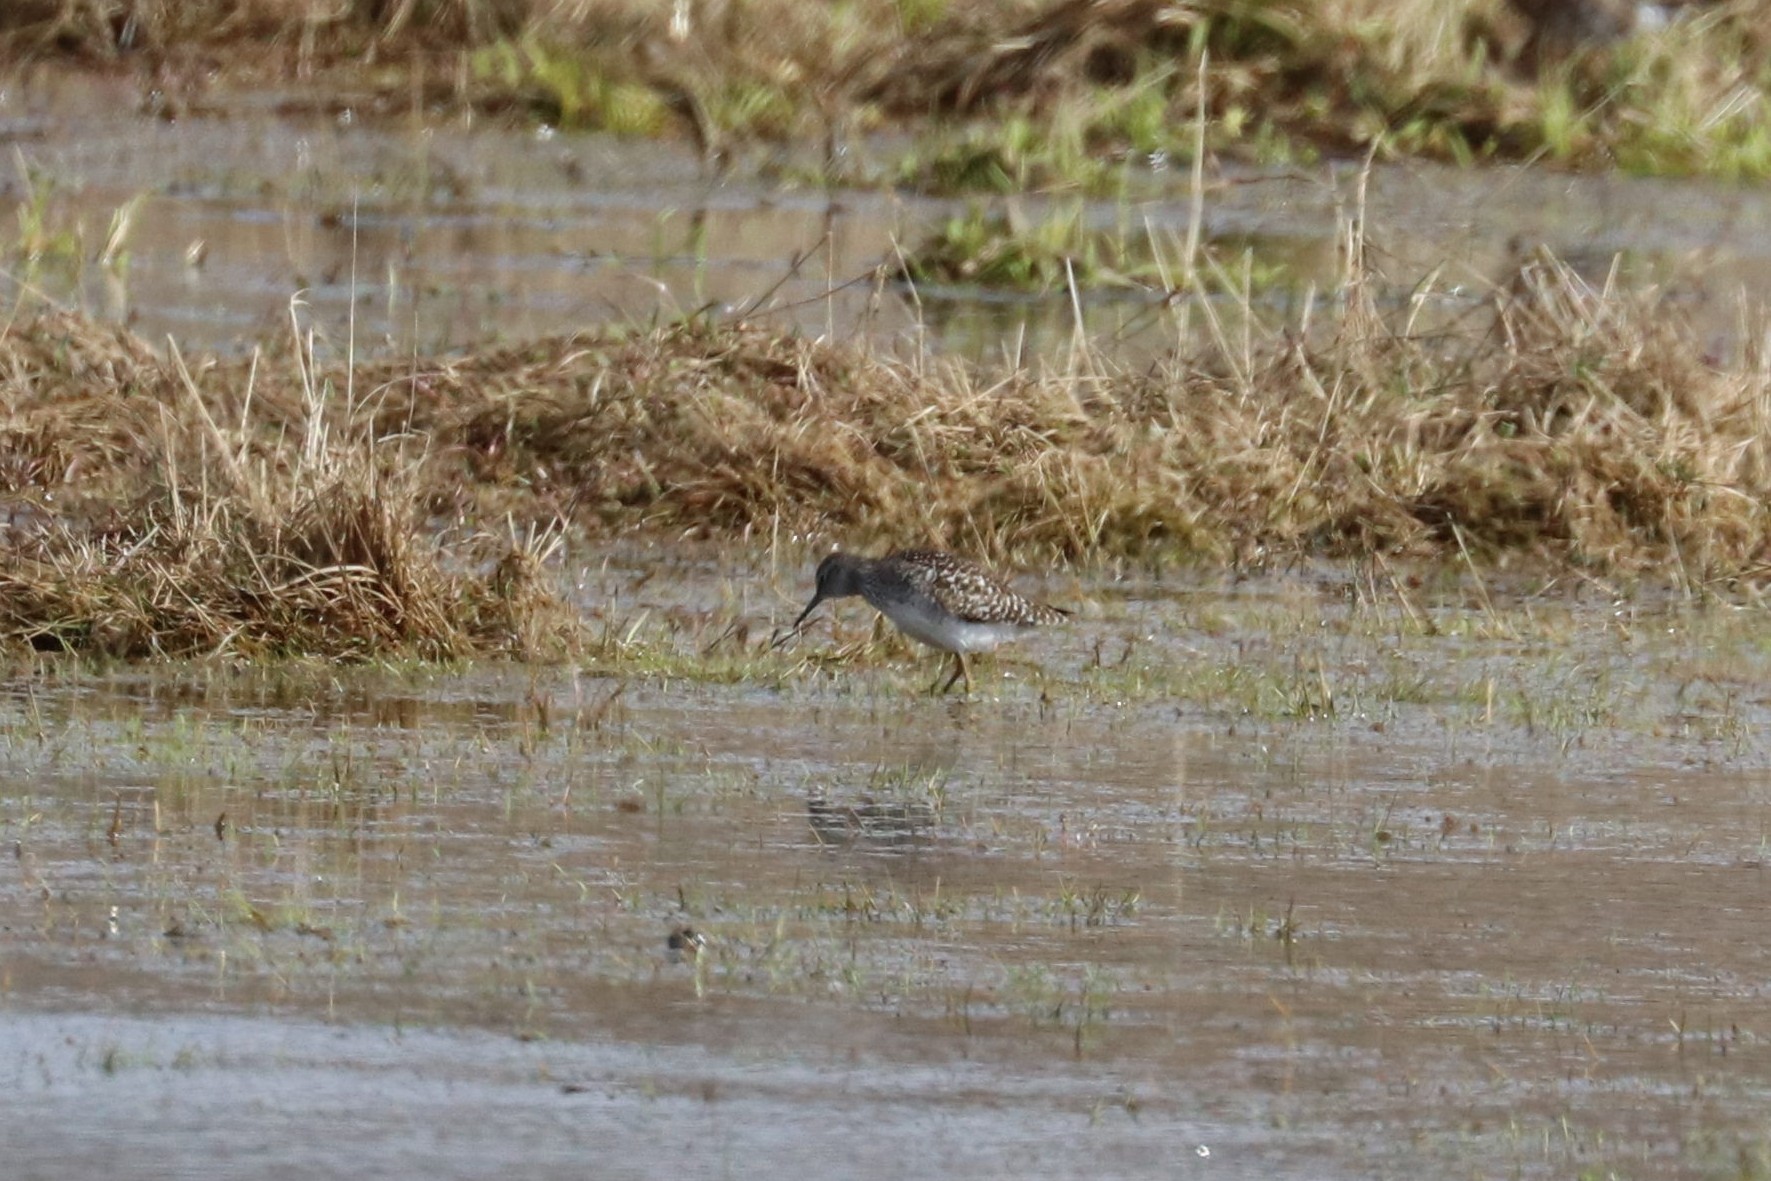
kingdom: Animalia
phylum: Chordata
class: Aves
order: Charadriiformes
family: Scolopacidae
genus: Tringa
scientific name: Tringa glareola
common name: Wood sandpiper
